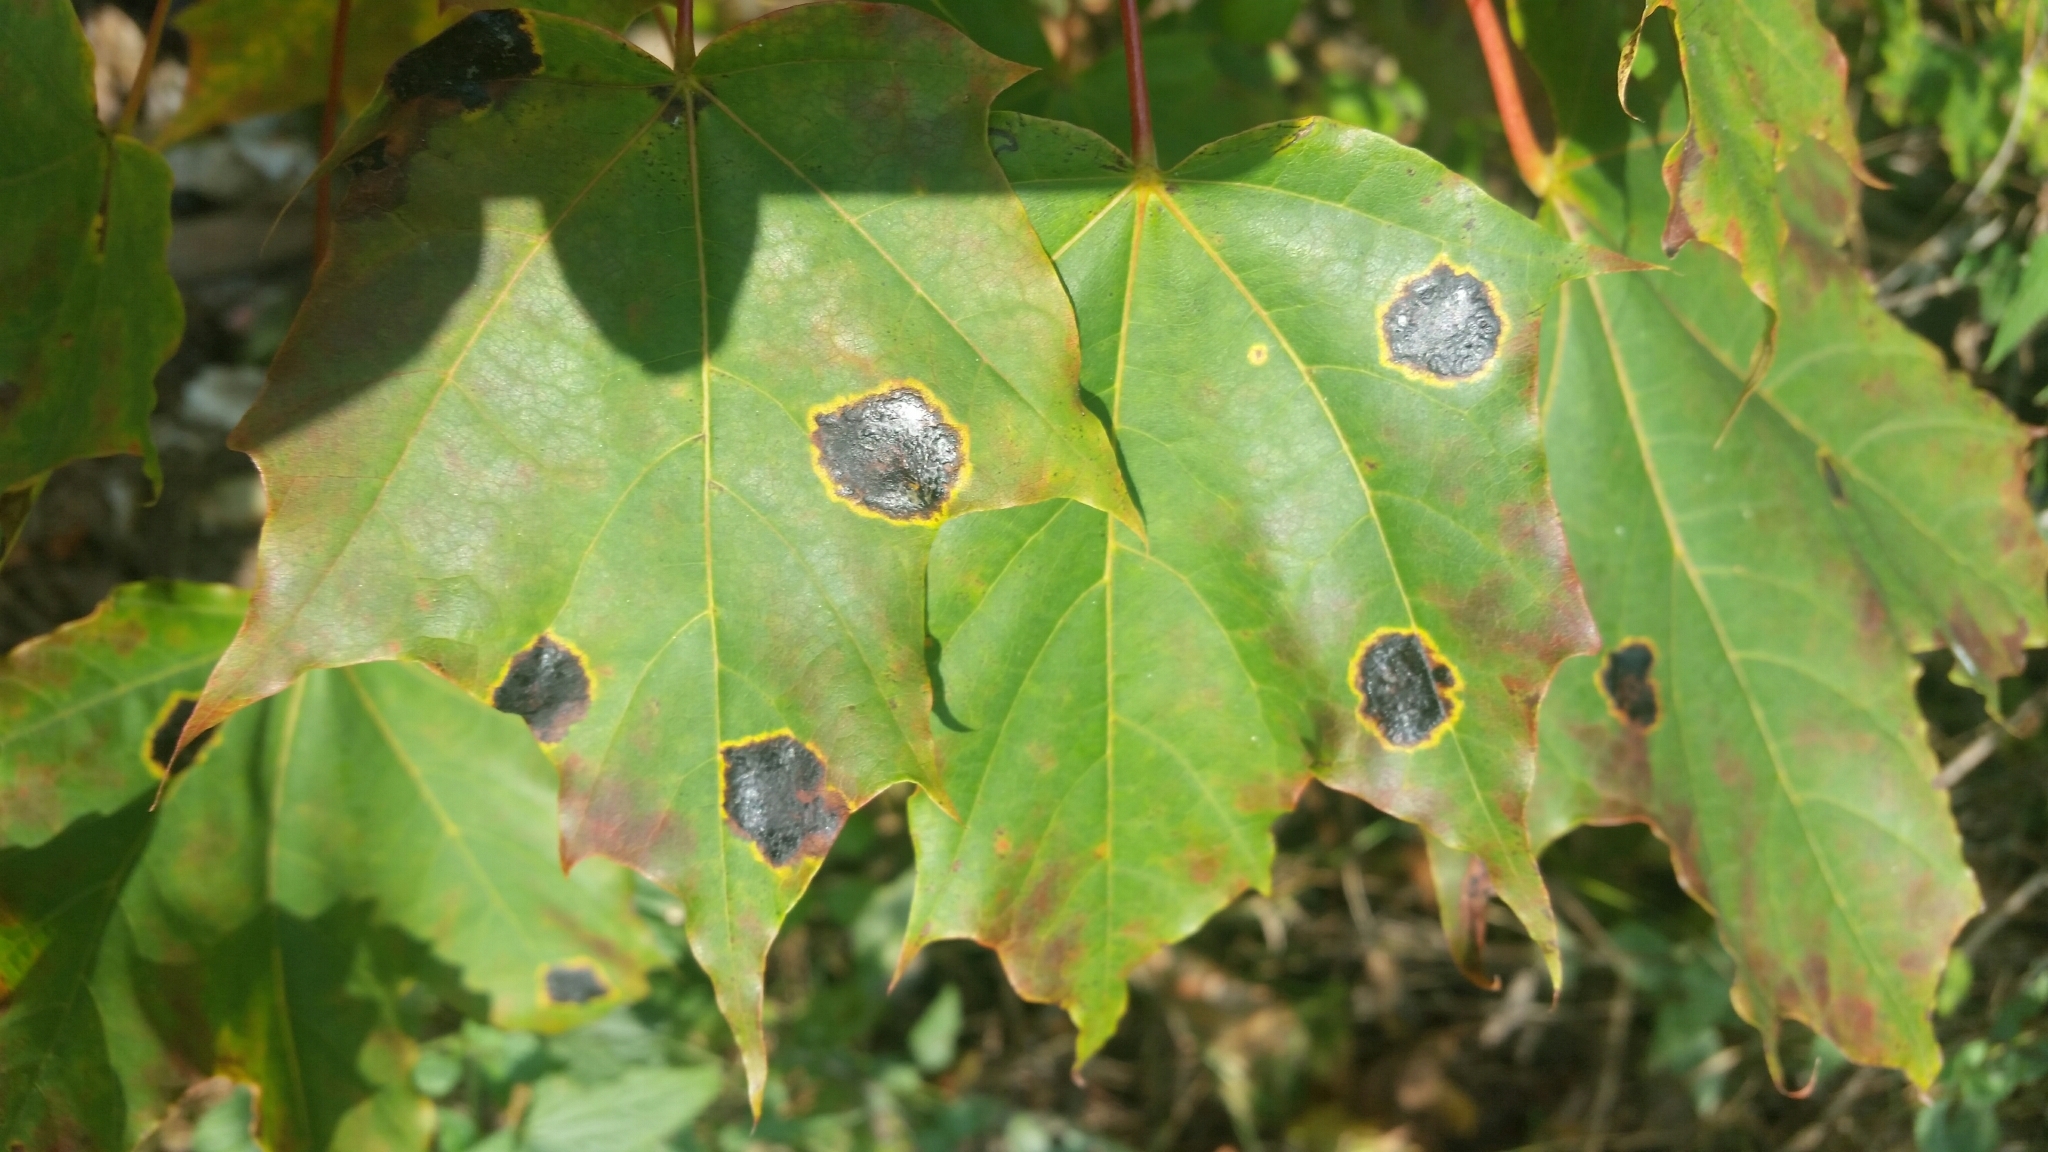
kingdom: Fungi
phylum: Ascomycota
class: Leotiomycetes
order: Rhytismatales
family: Rhytismataceae
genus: Rhytisma
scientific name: Rhytisma acerinum
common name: European tar spot
